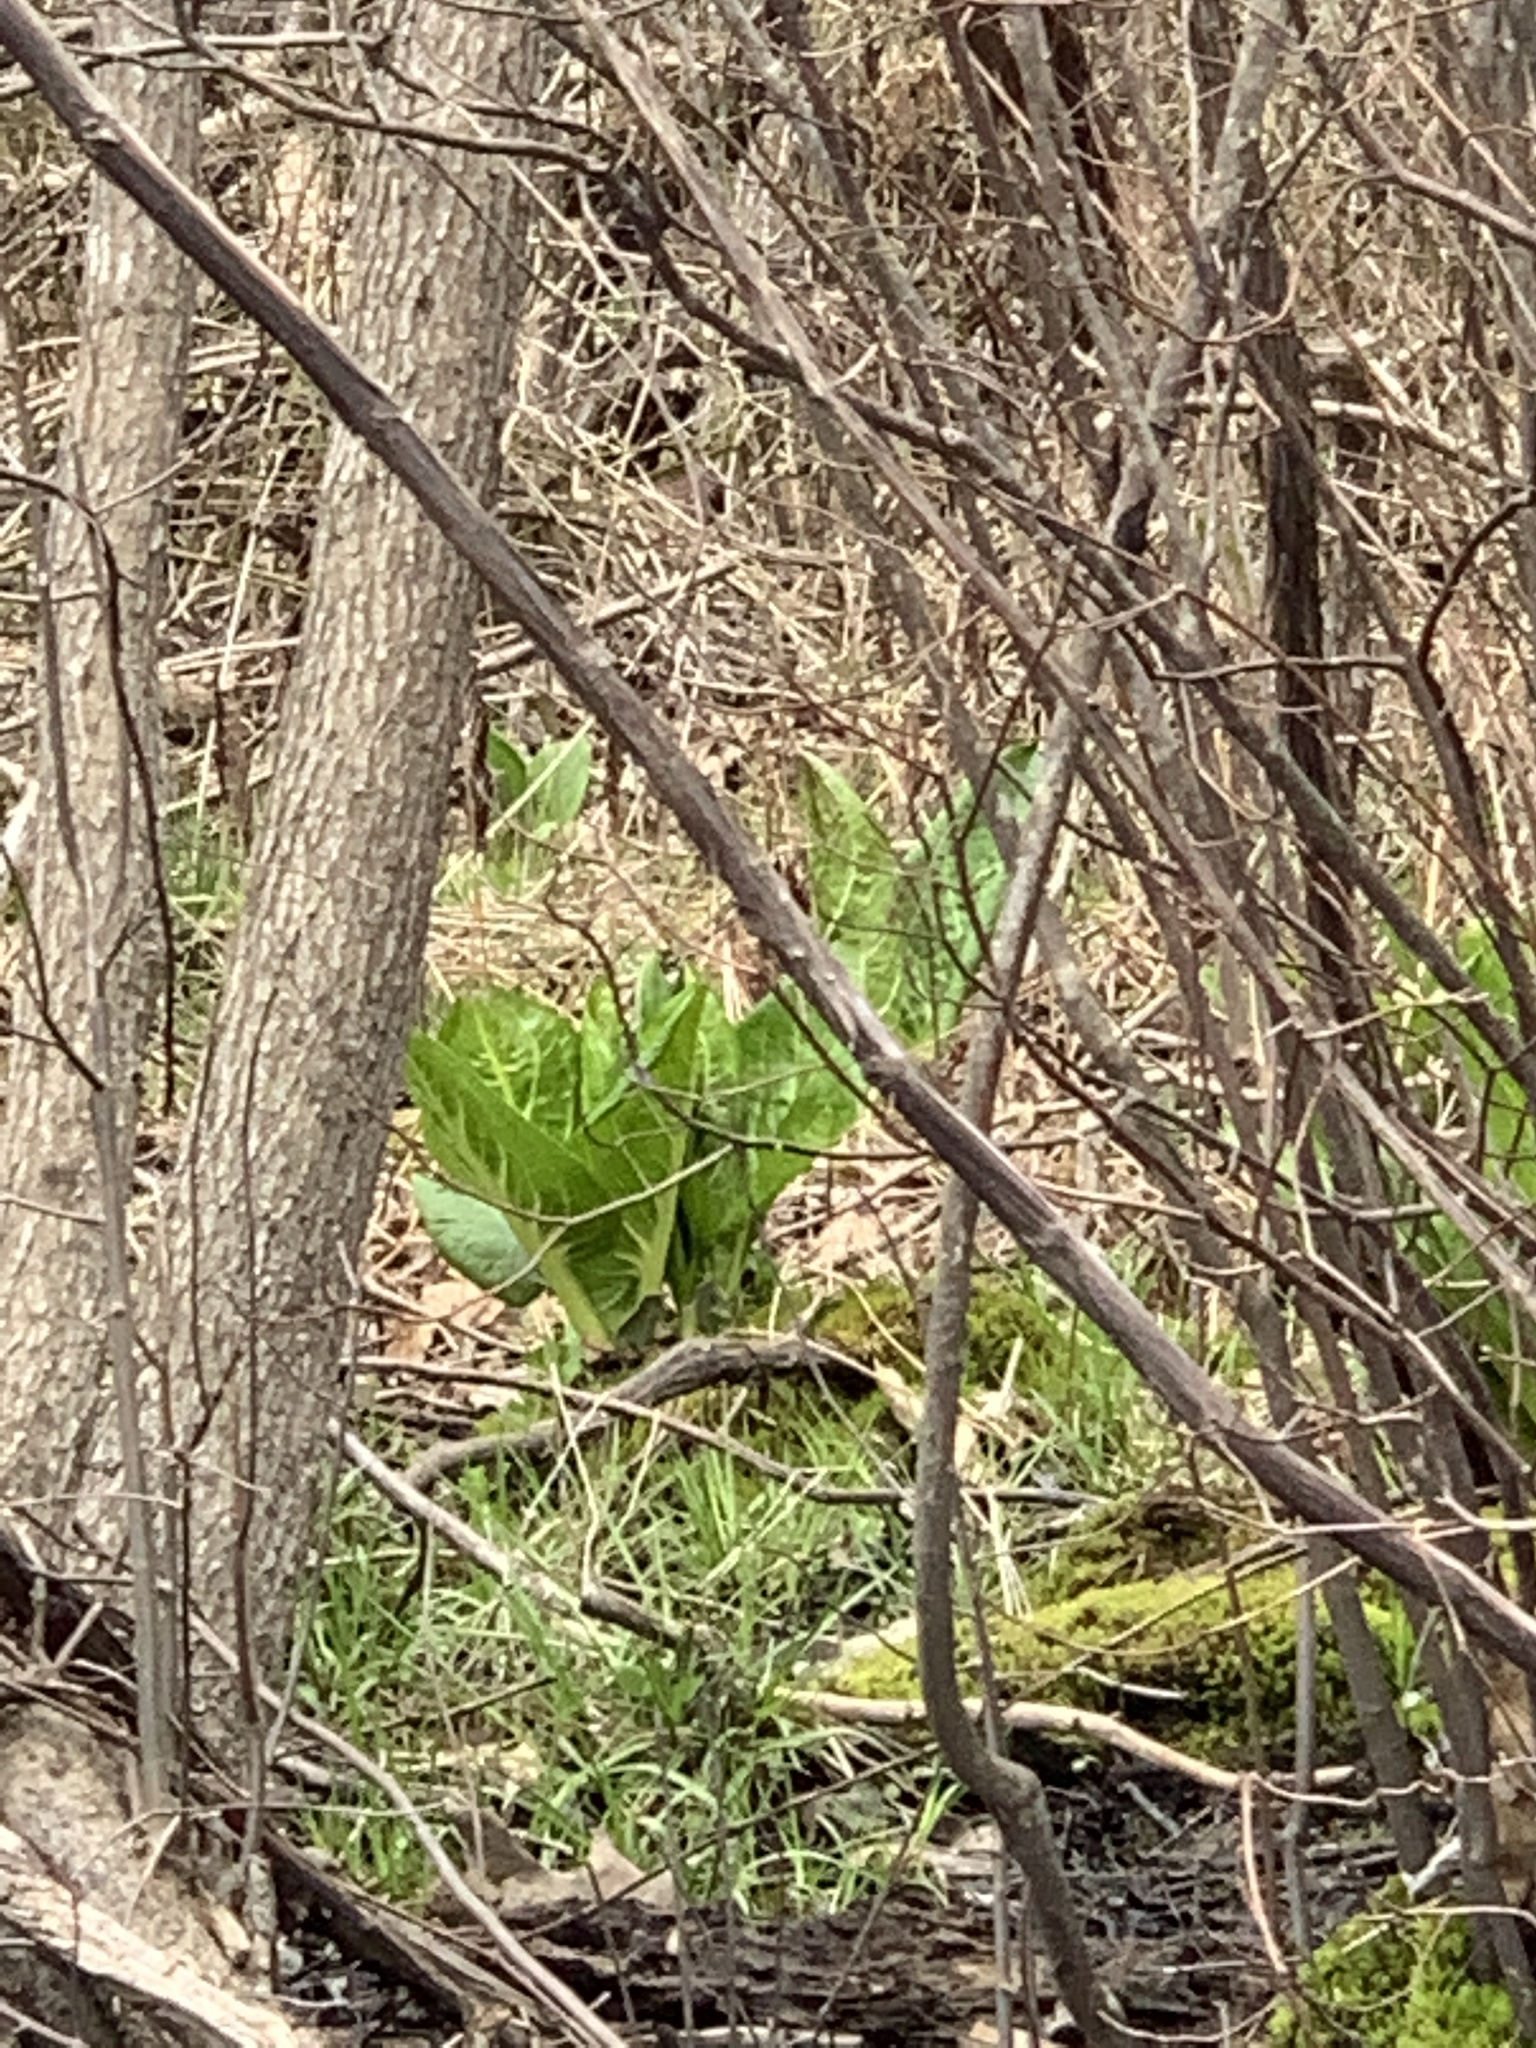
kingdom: Plantae
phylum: Tracheophyta
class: Liliopsida
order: Alismatales
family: Araceae
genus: Symplocarpus
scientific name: Symplocarpus foetidus
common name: Eastern skunk cabbage
